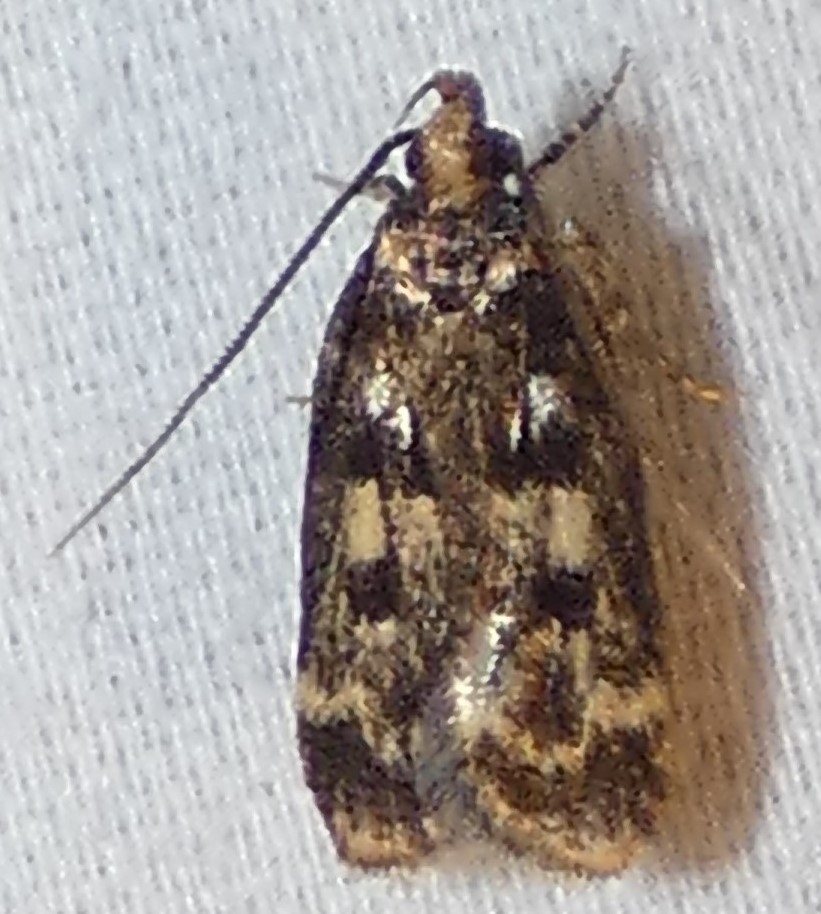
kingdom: Animalia
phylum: Arthropoda
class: Insecta
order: Lepidoptera
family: Lecithoceridae
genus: Martyringa
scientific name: Martyringa latipennis
